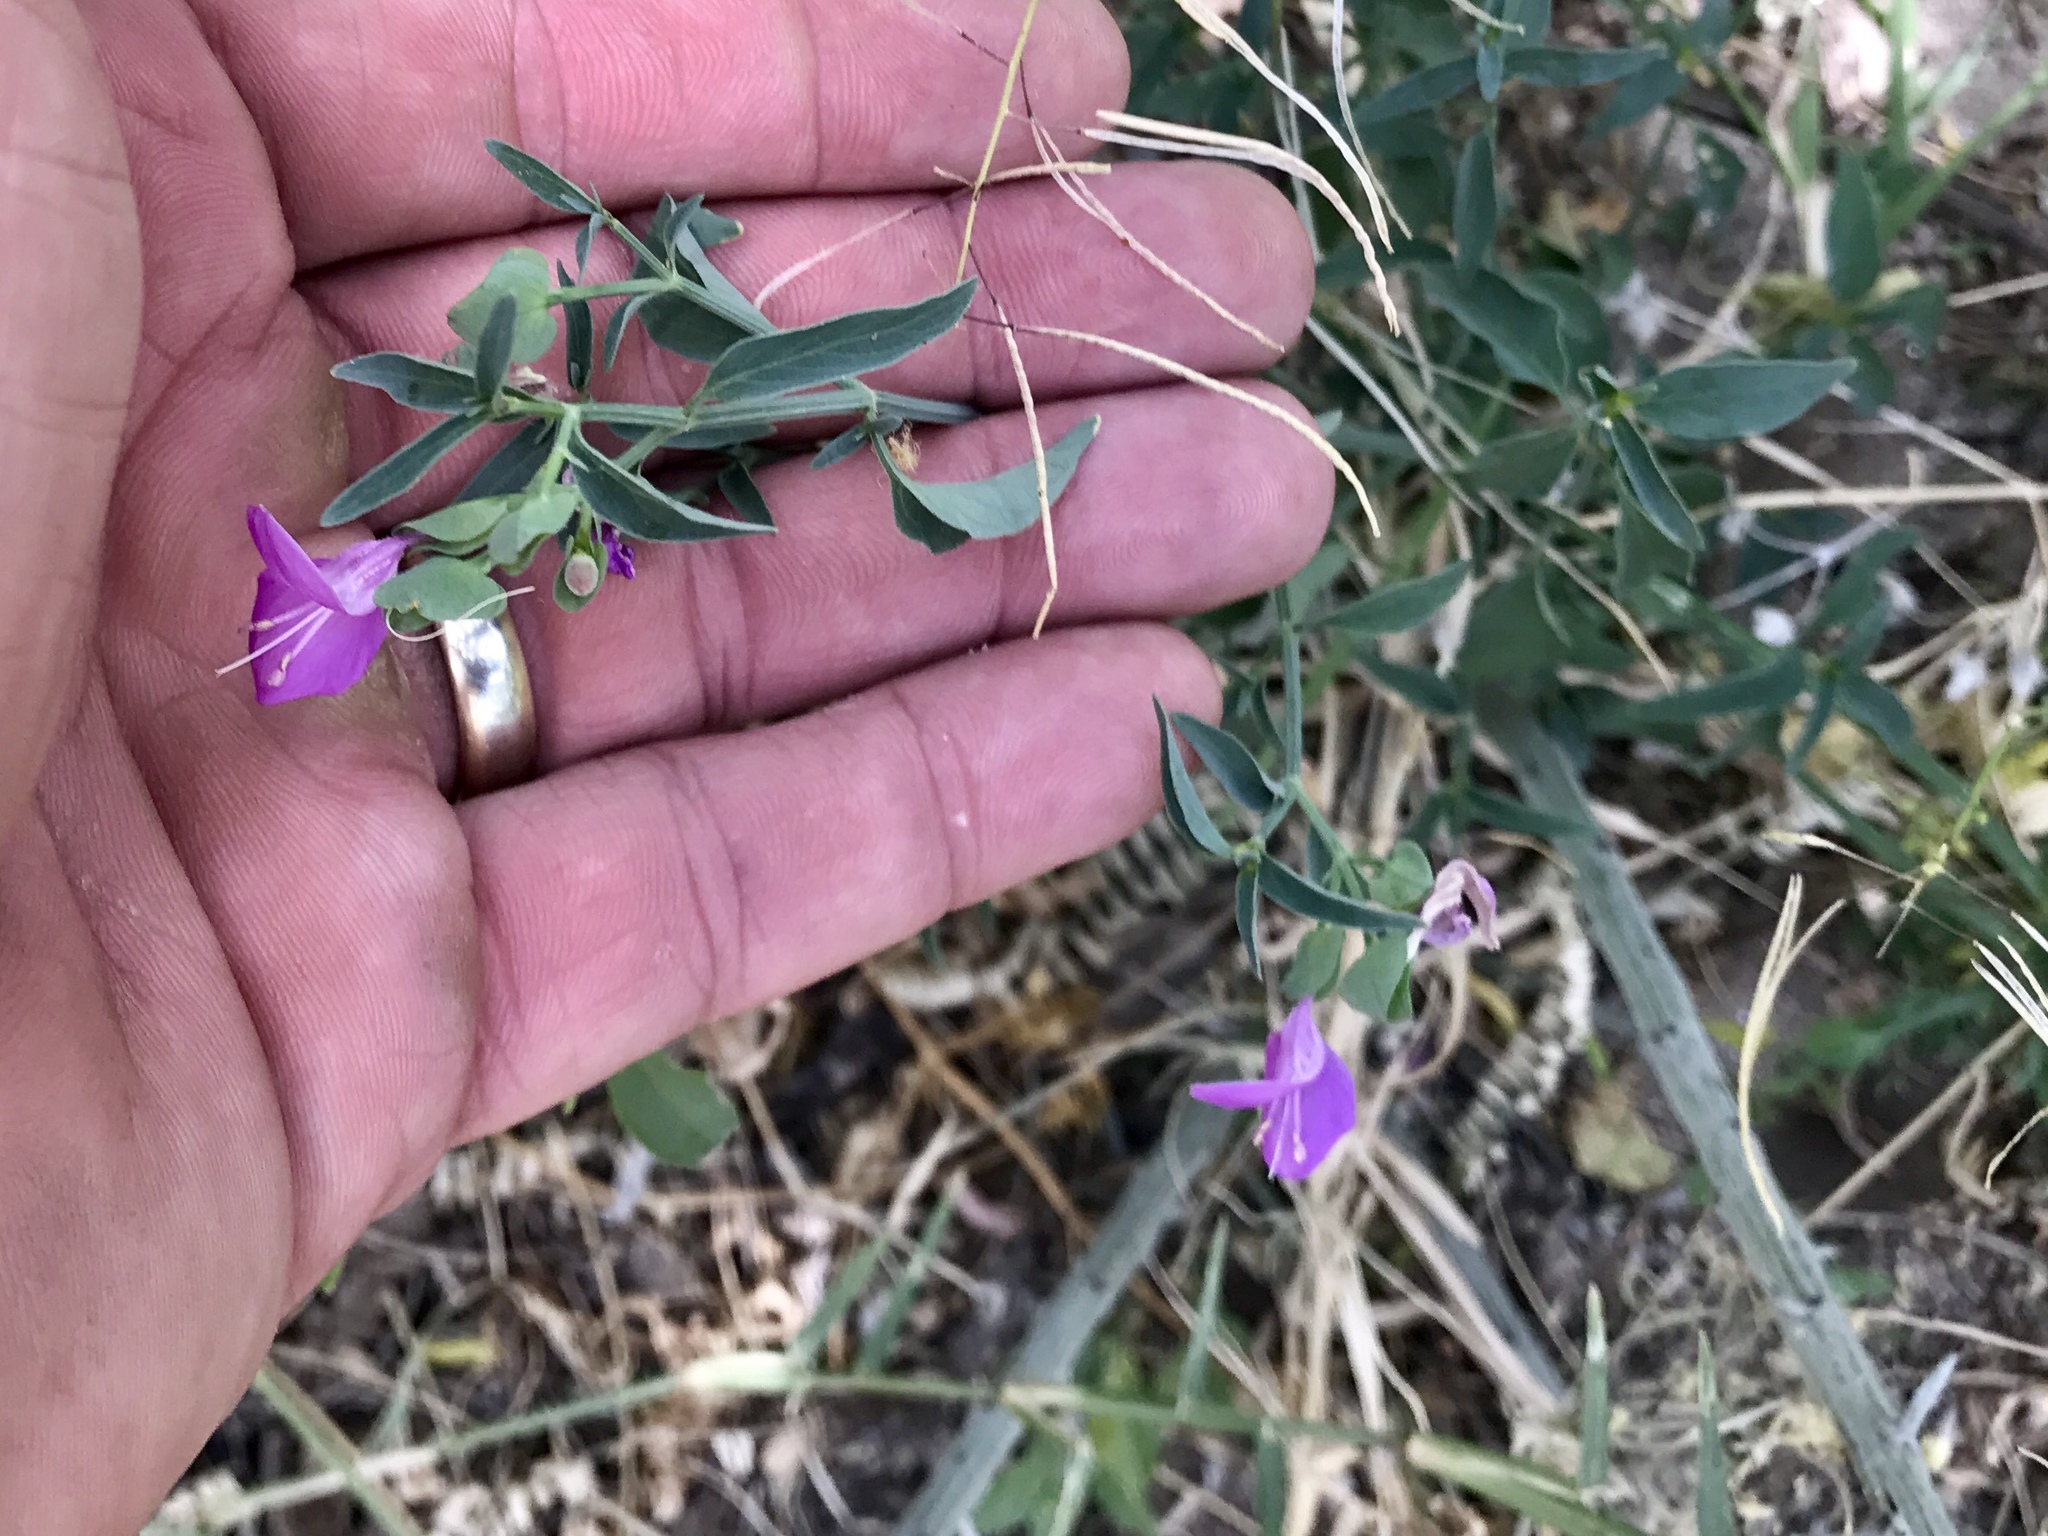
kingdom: Plantae
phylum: Tracheophyta
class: Magnoliopsida
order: Lamiales
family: Acanthaceae
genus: Dicliptera
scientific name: Dicliptera resupinata
